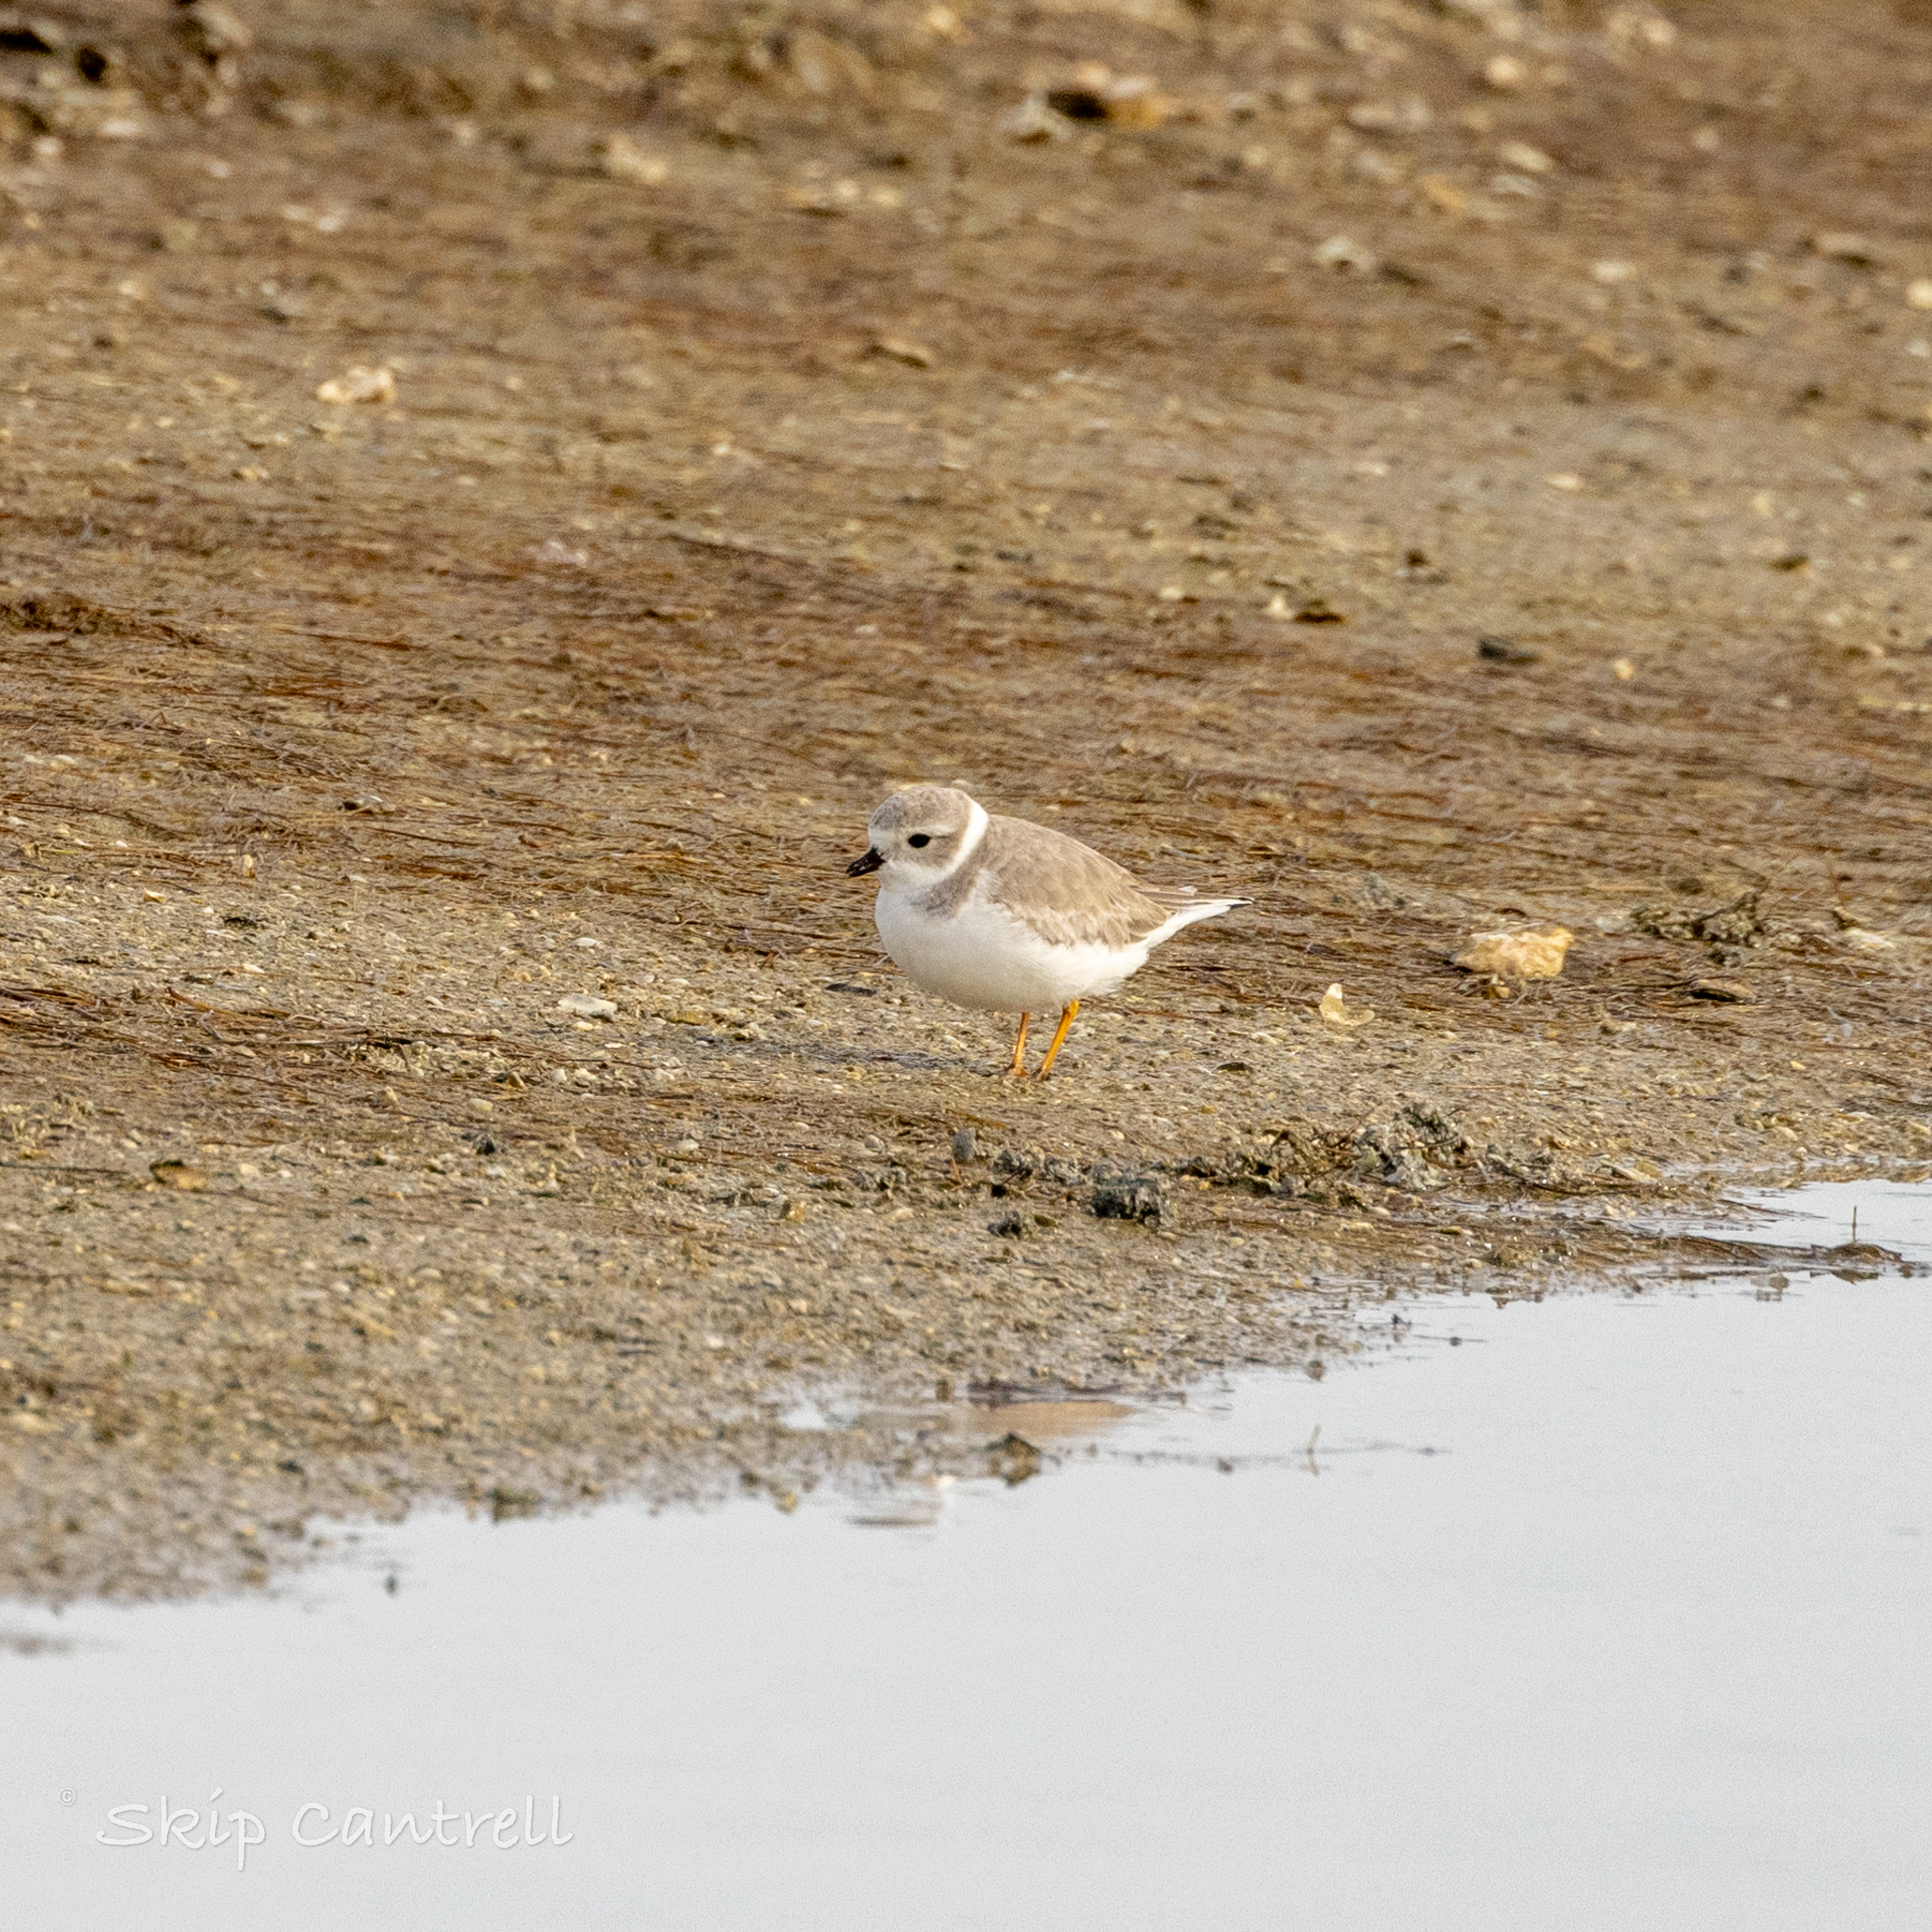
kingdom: Animalia
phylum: Chordata
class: Aves
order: Charadriiformes
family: Charadriidae
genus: Charadrius
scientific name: Charadrius melodus
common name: Piping plover
